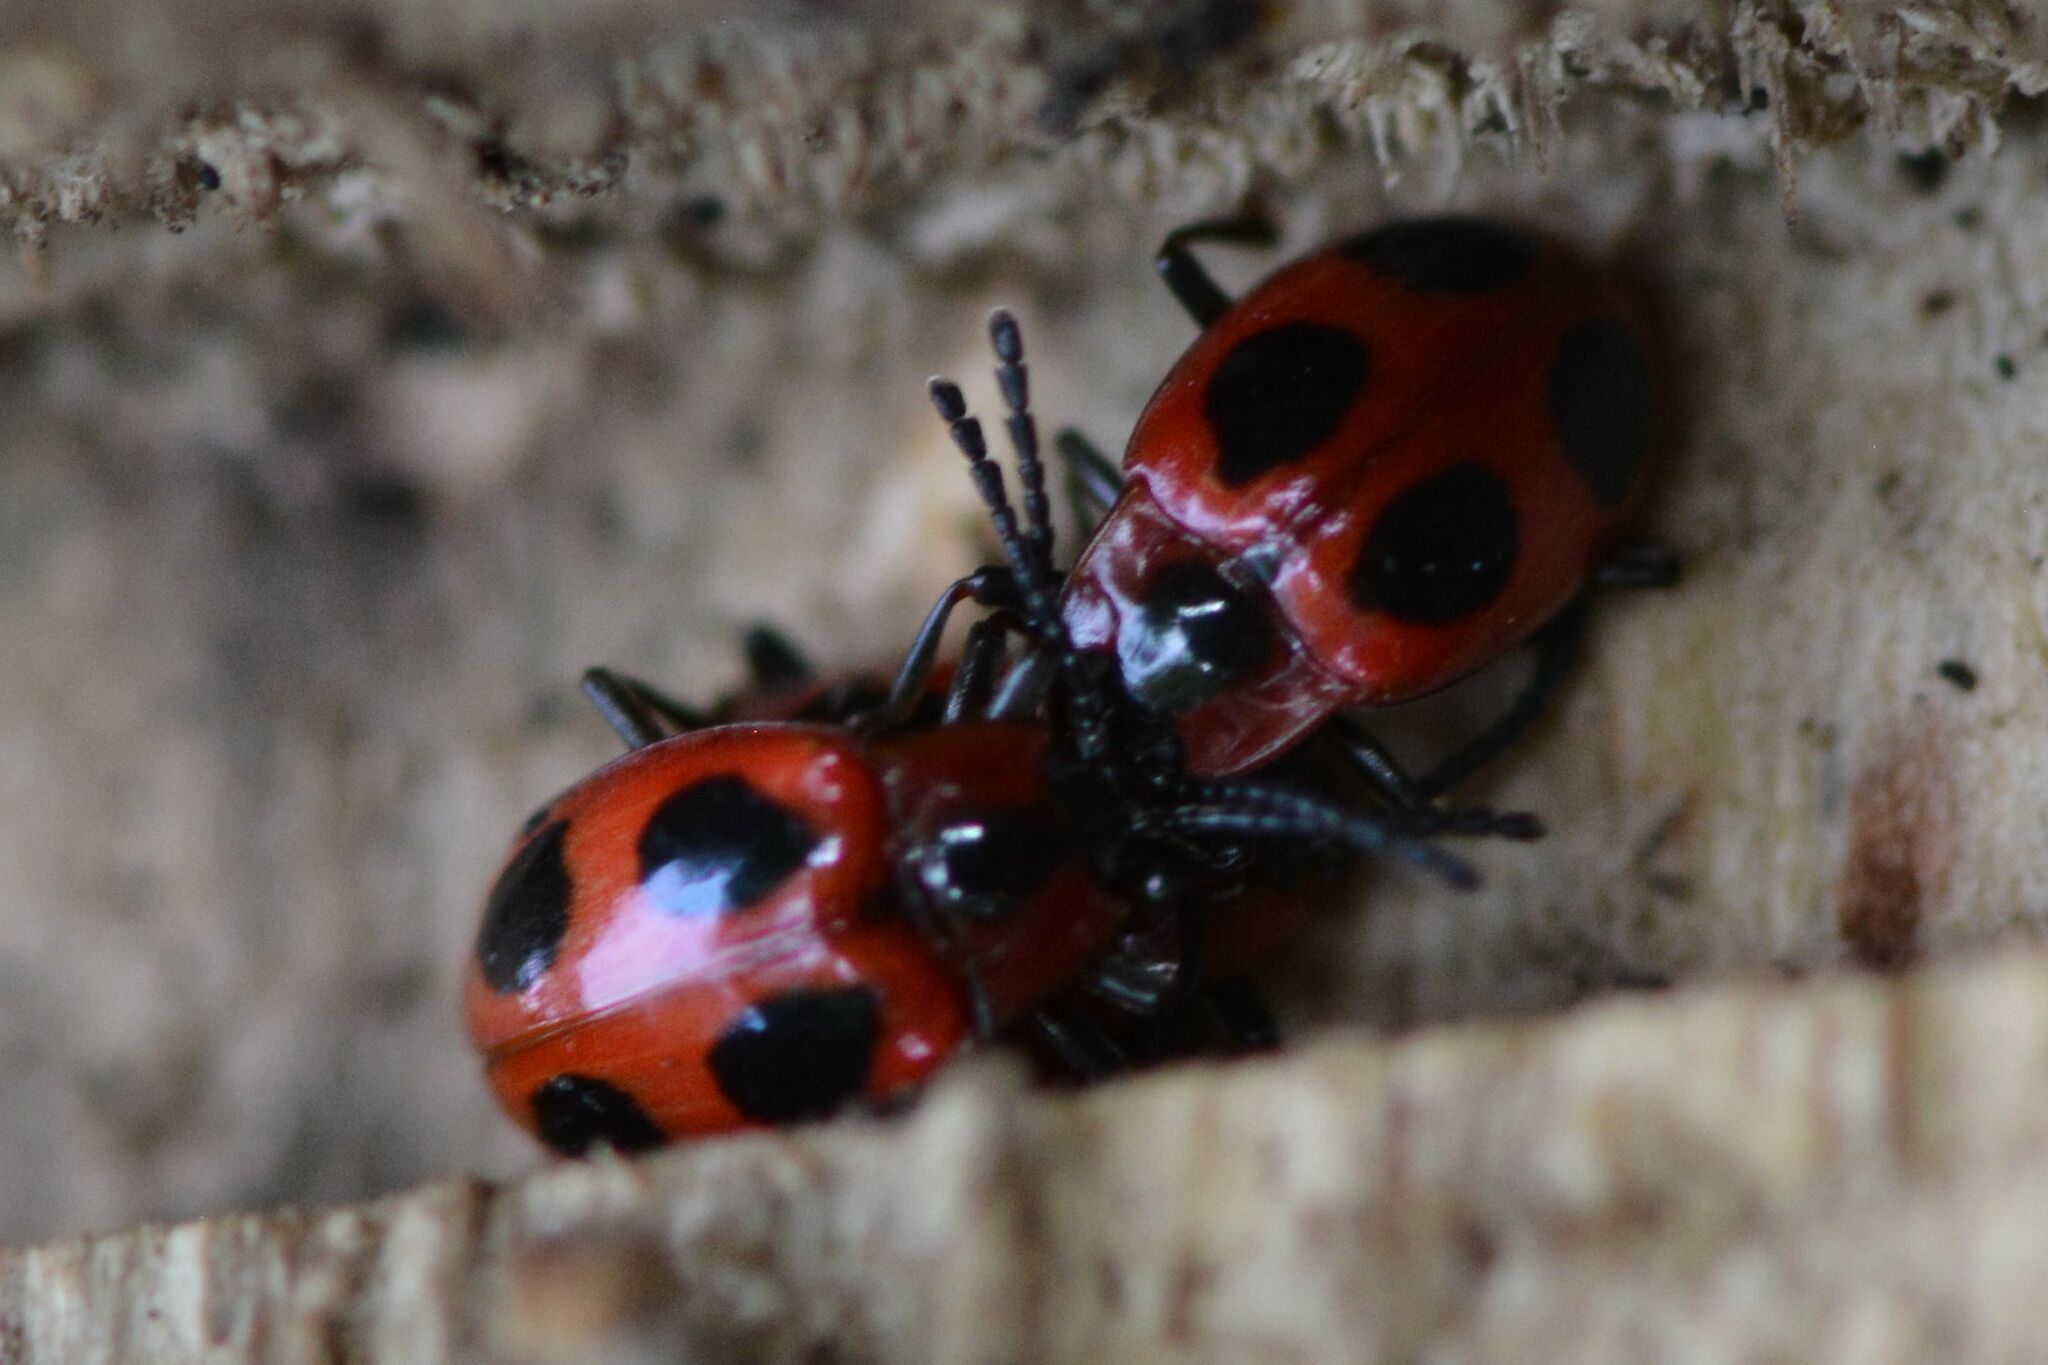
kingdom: Animalia
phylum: Arthropoda
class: Insecta
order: Coleoptera
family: Endomychidae
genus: Endomychus
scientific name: Endomychus coccineus
